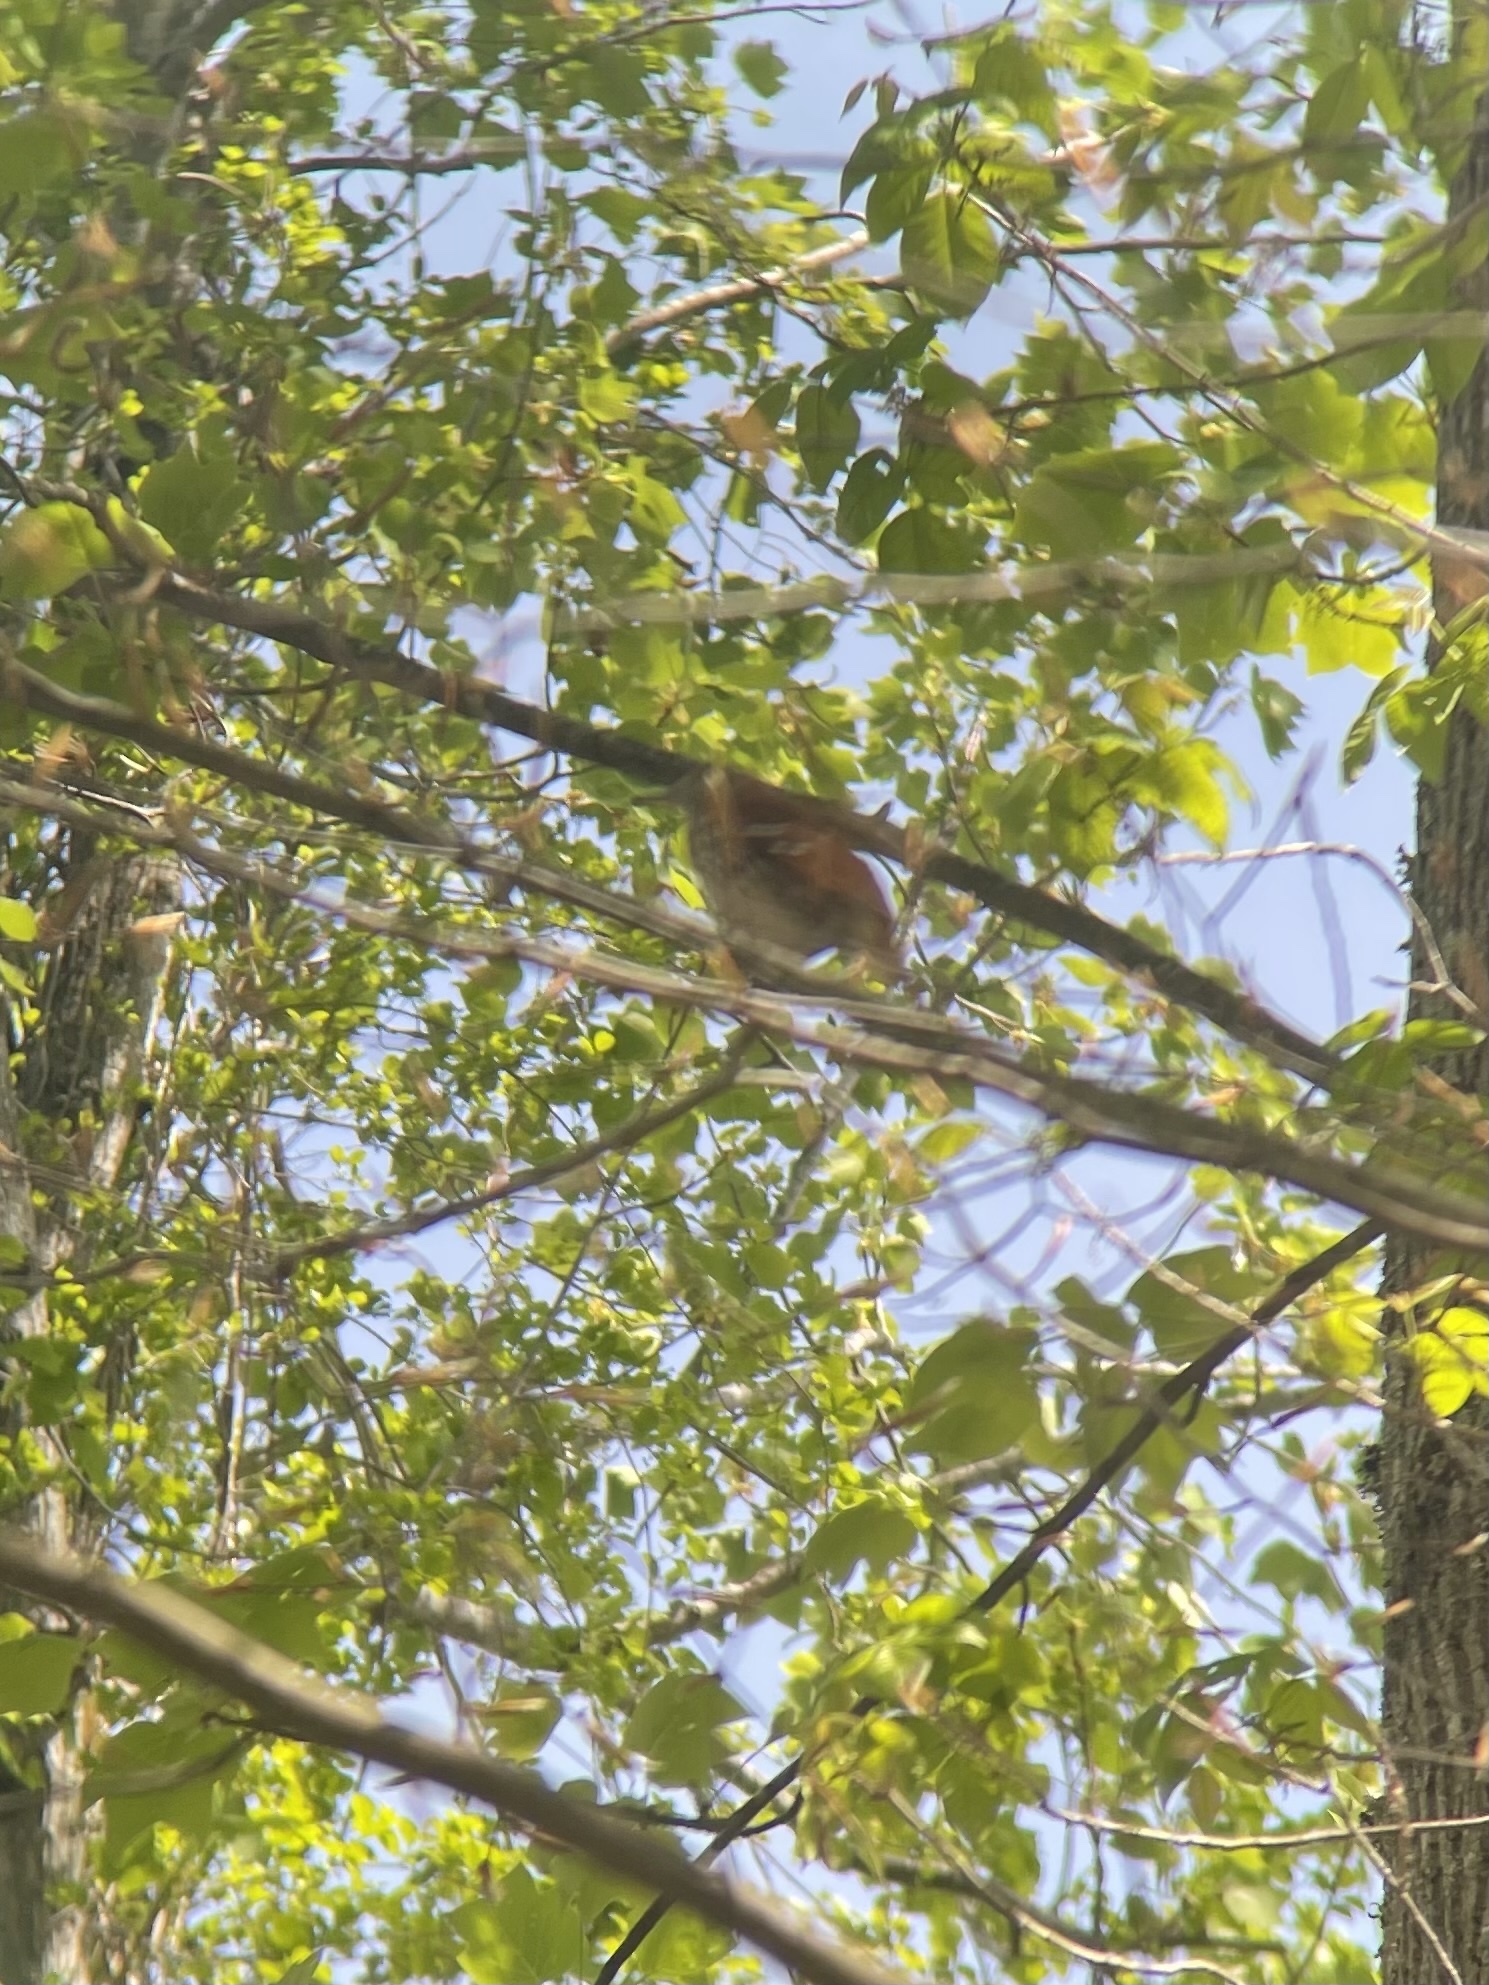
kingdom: Animalia
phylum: Chordata
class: Aves
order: Passeriformes
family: Mimidae
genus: Toxostoma
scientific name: Toxostoma rufum
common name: Brown thrasher
